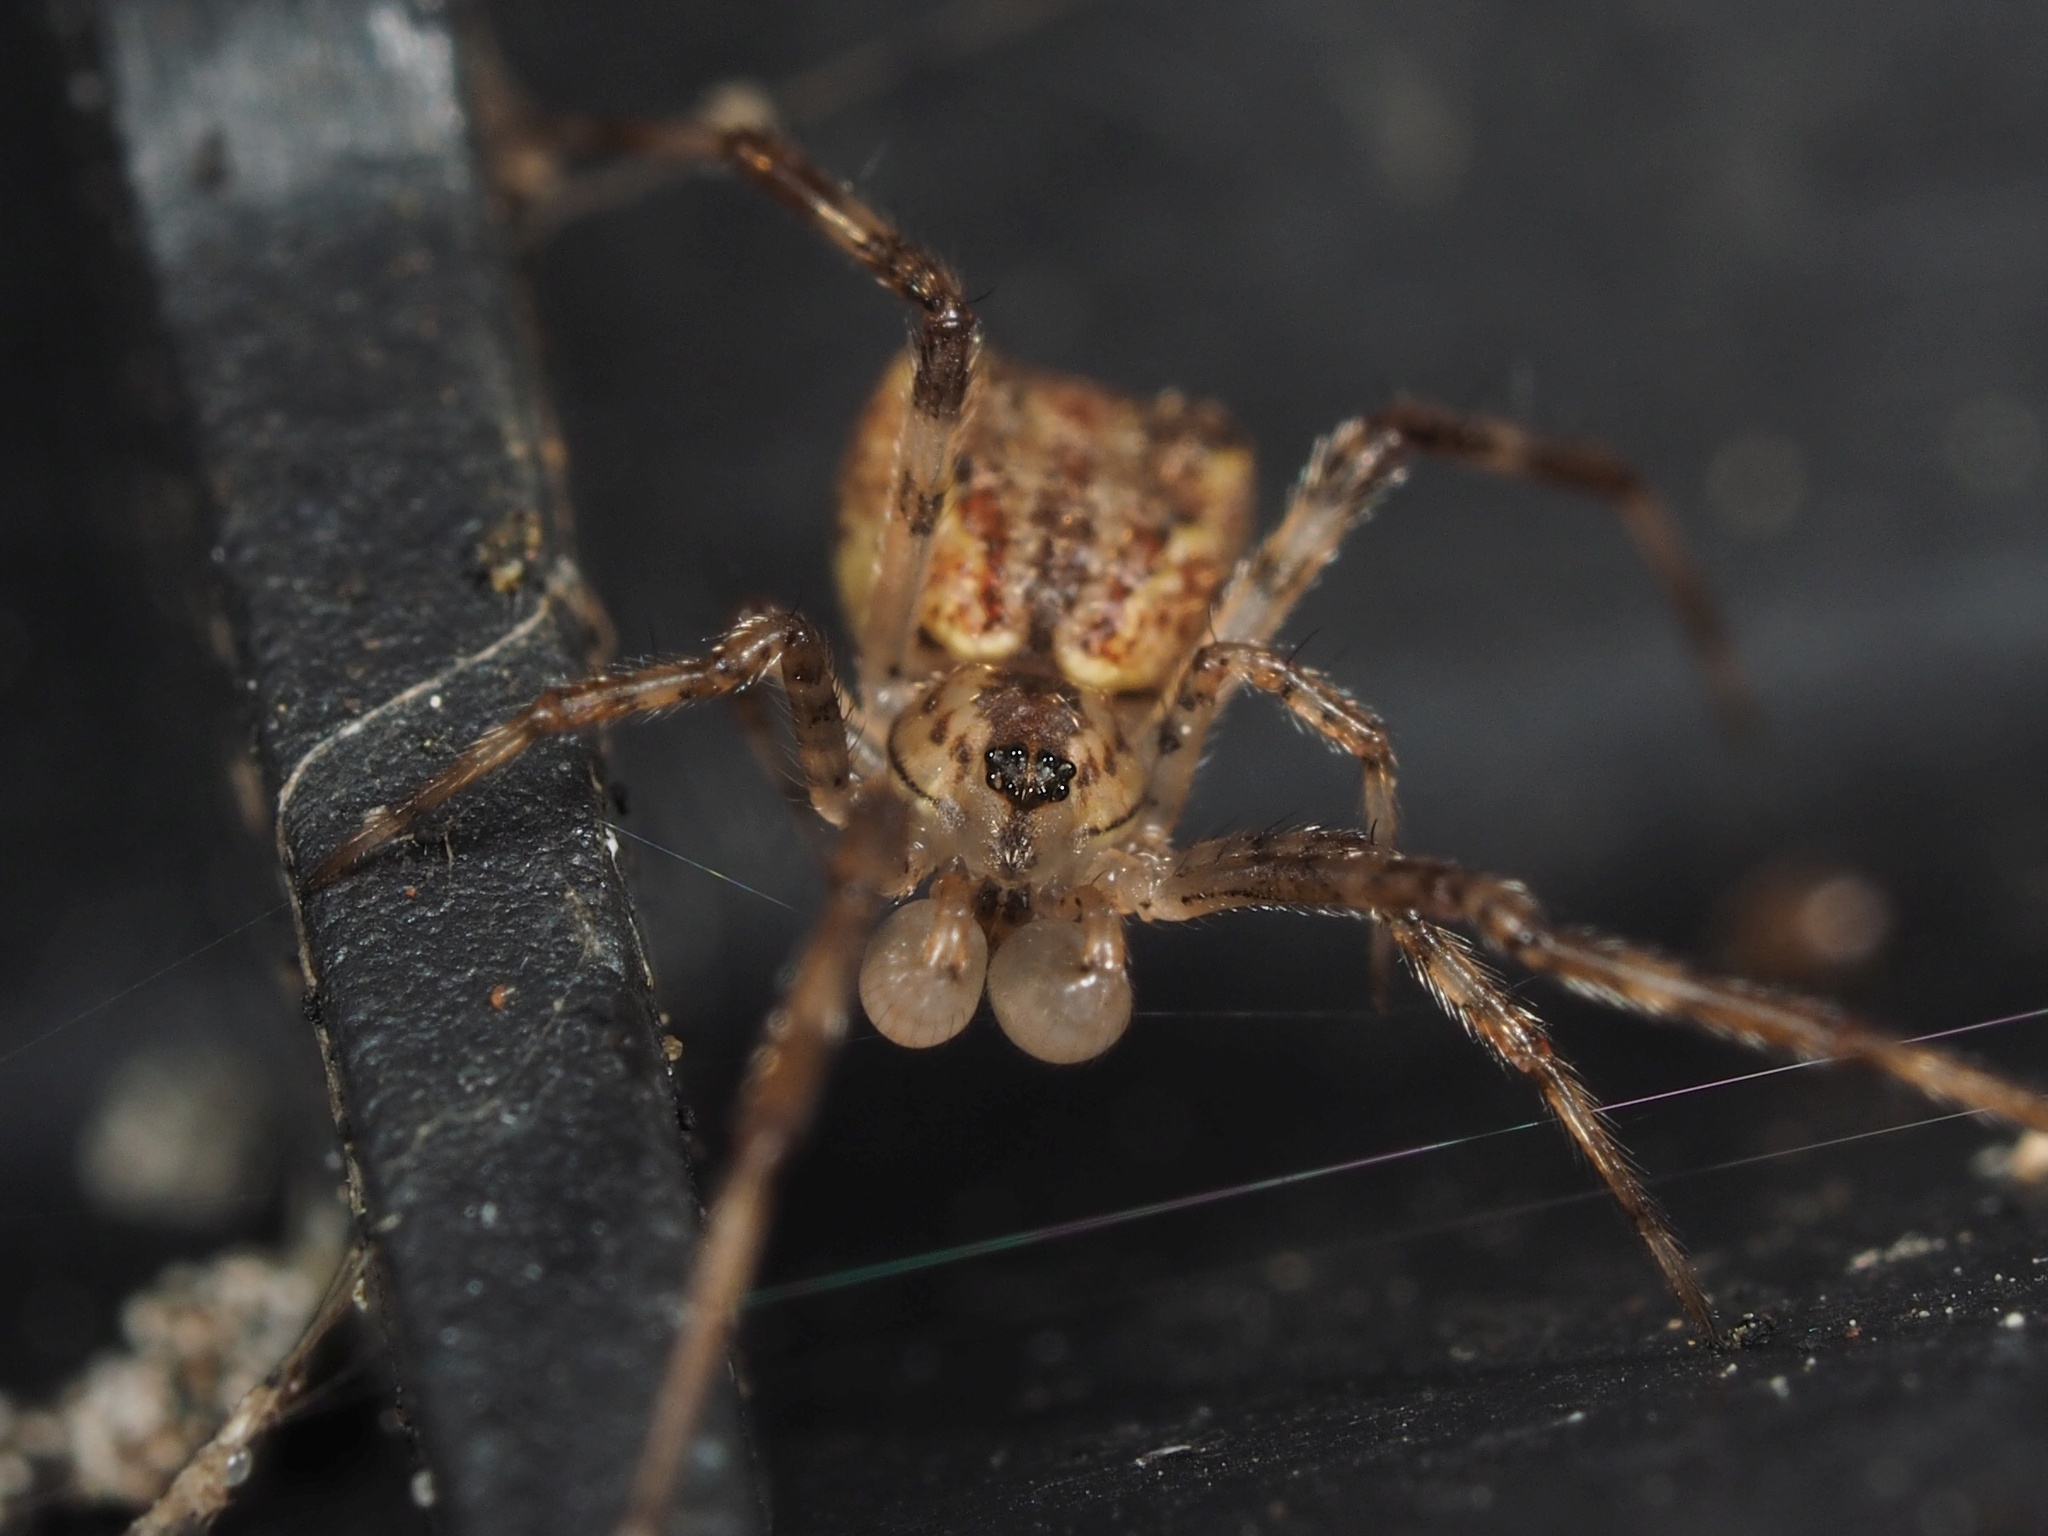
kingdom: Animalia
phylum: Arthropoda
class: Arachnida
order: Araneae
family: Theridiidae
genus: Episinus
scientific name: Episinus maculipes
